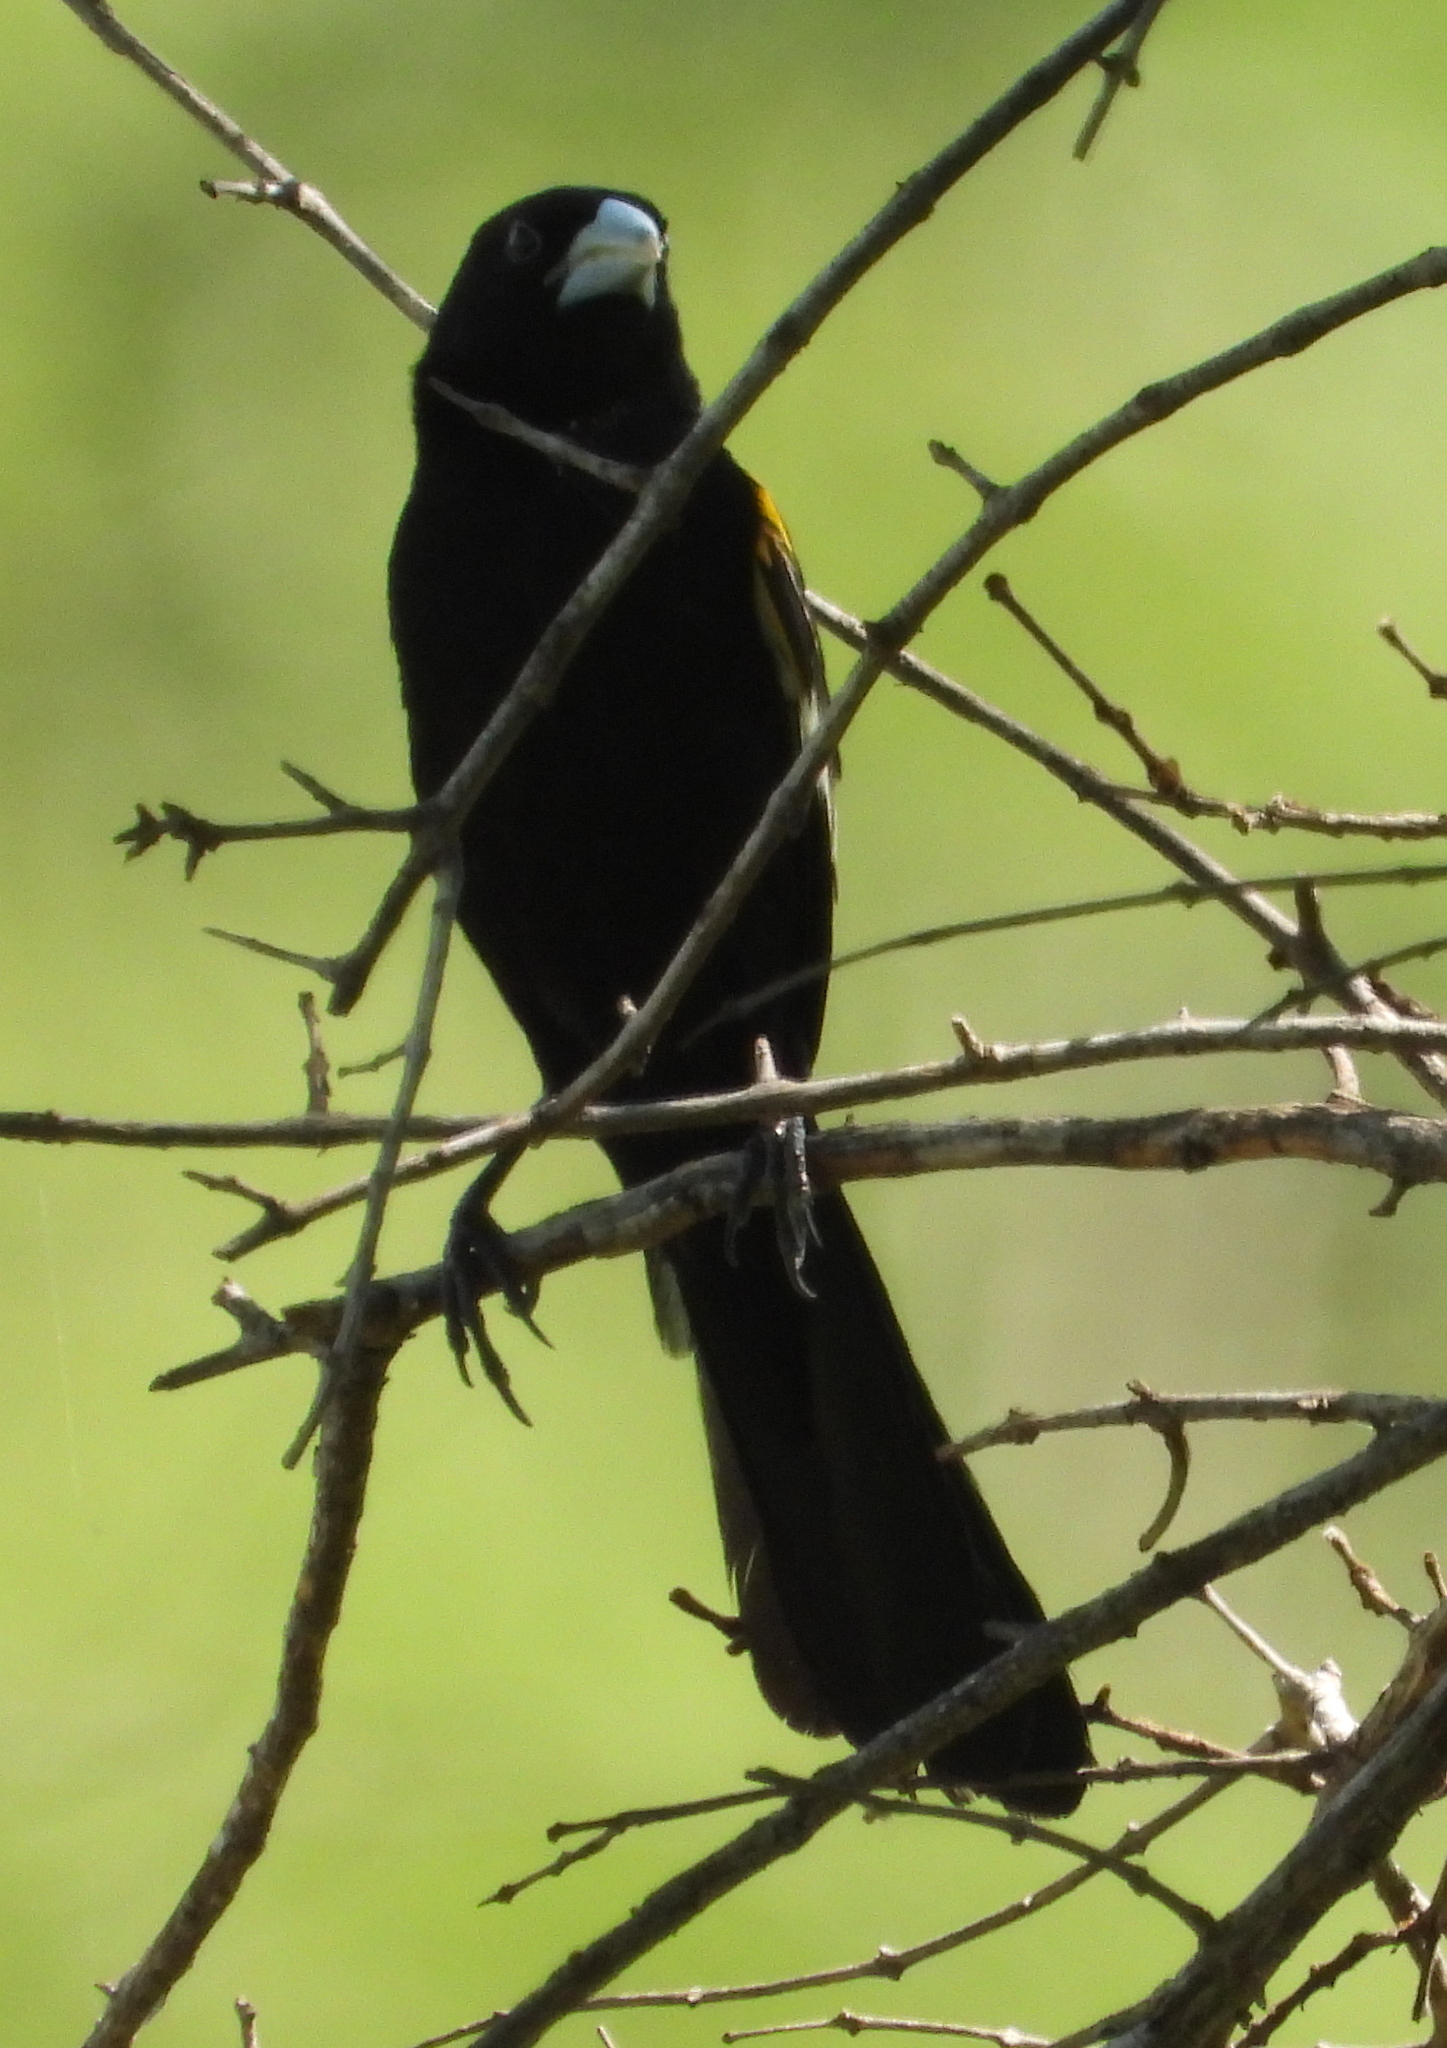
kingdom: Animalia
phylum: Chordata
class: Aves
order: Passeriformes
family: Ploceidae
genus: Euplectes
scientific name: Euplectes albonotatus
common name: White-winged widowbird
